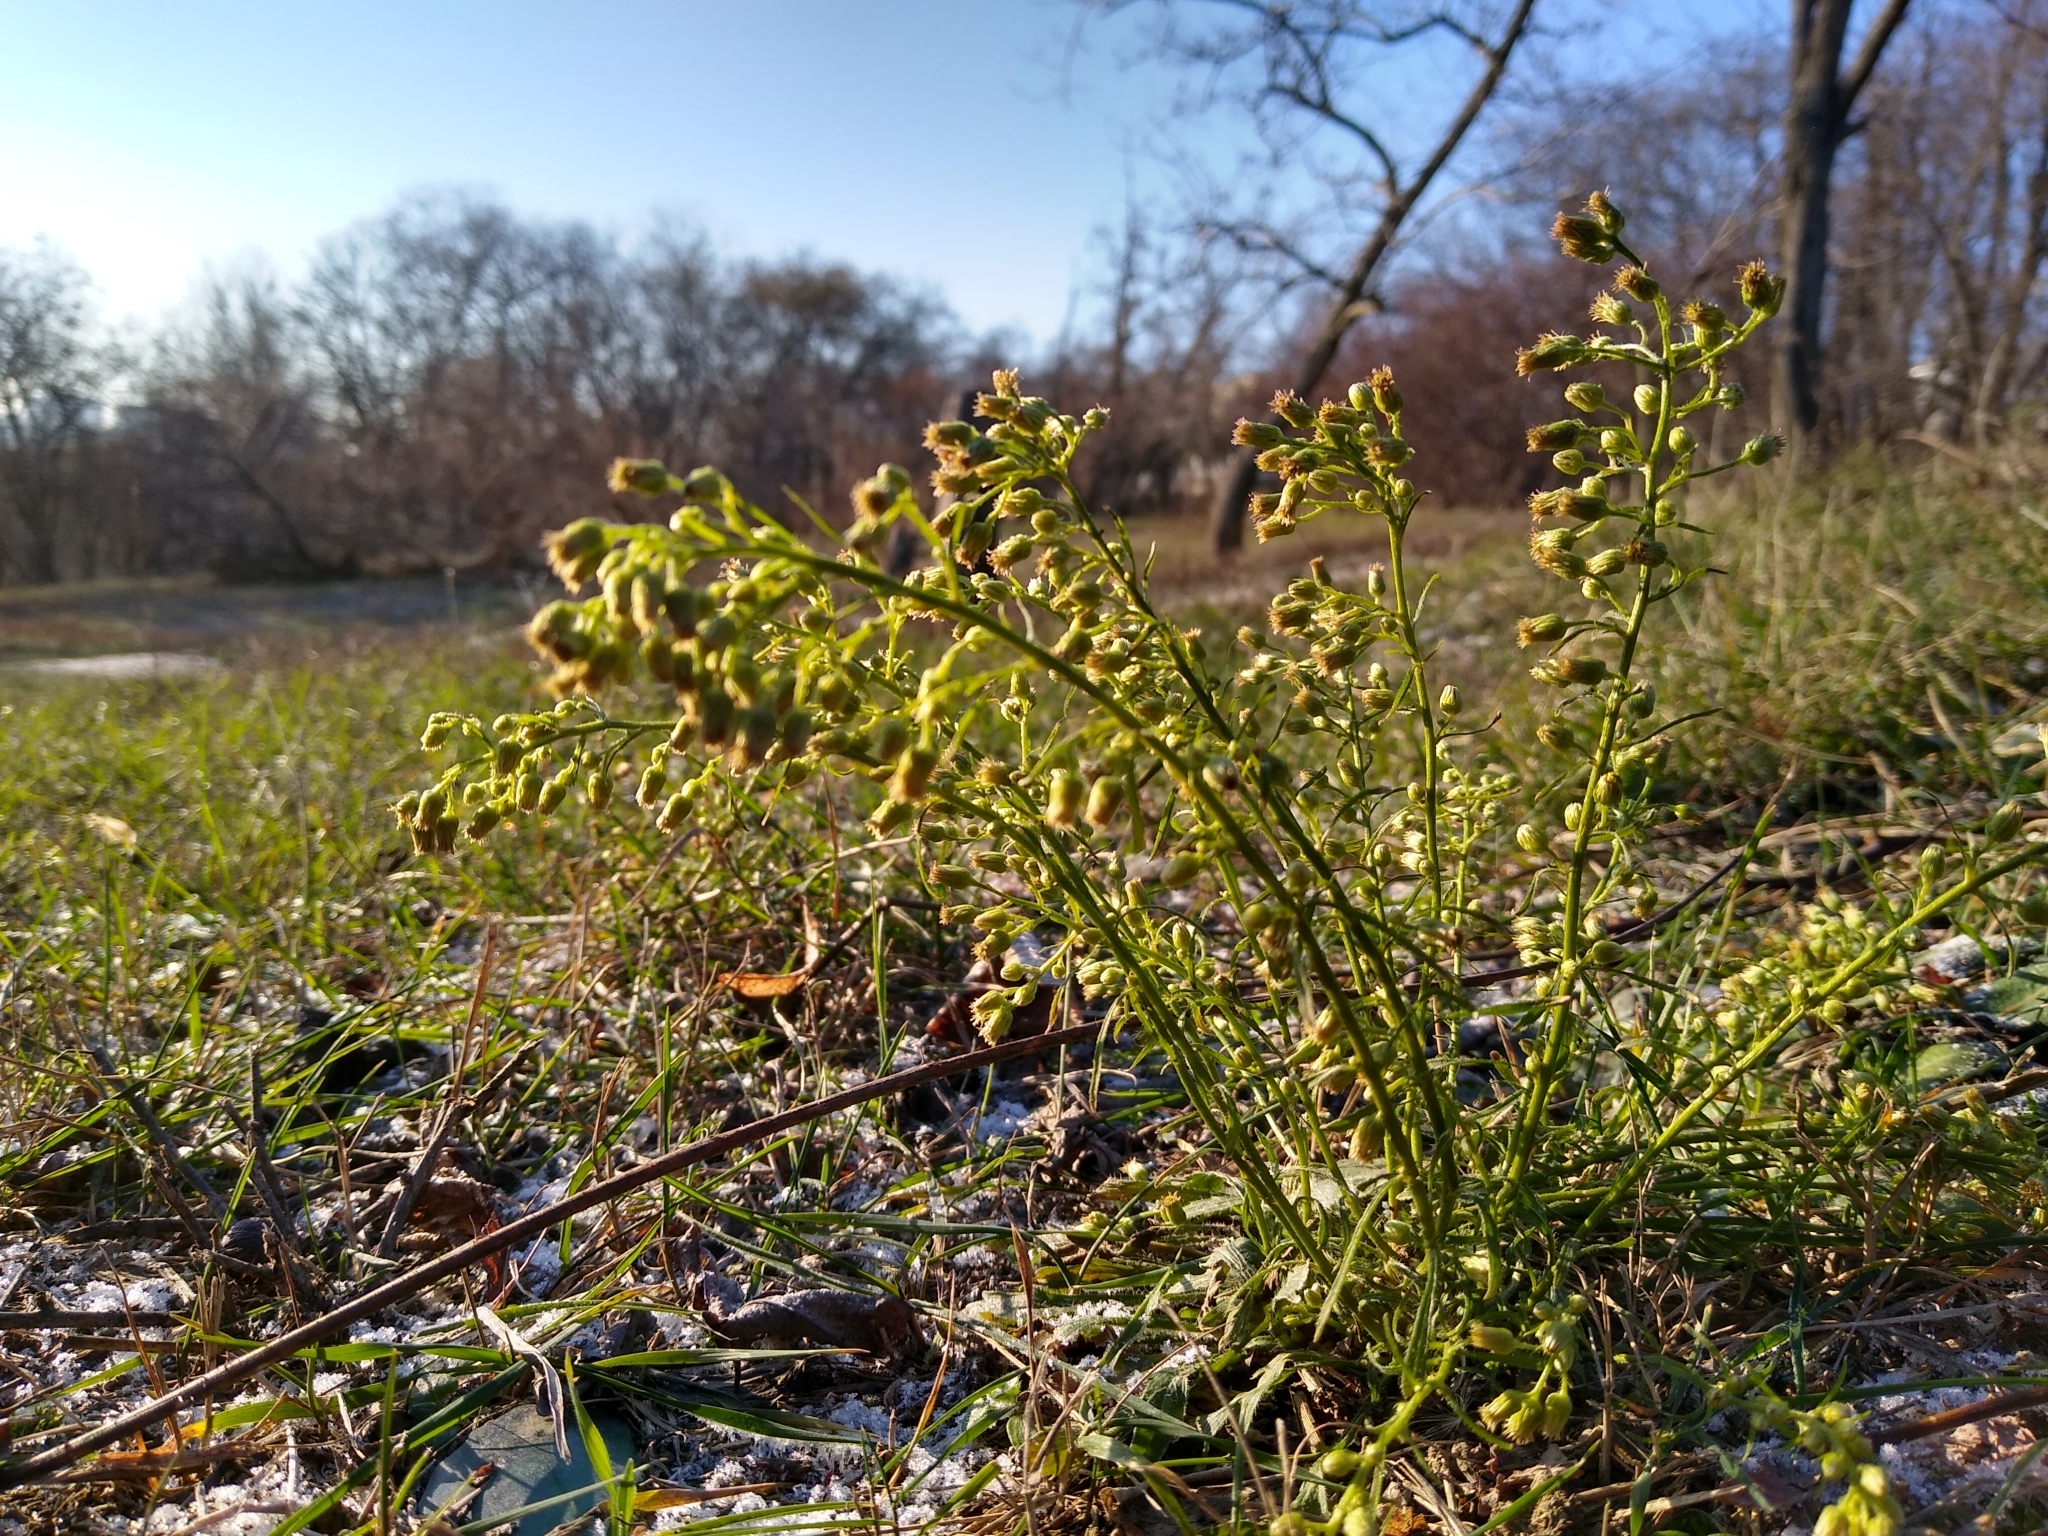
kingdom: Plantae
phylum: Tracheophyta
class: Magnoliopsida
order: Asterales
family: Asteraceae
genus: Erigeron
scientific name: Erigeron canadensis
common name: Canadian fleabane
